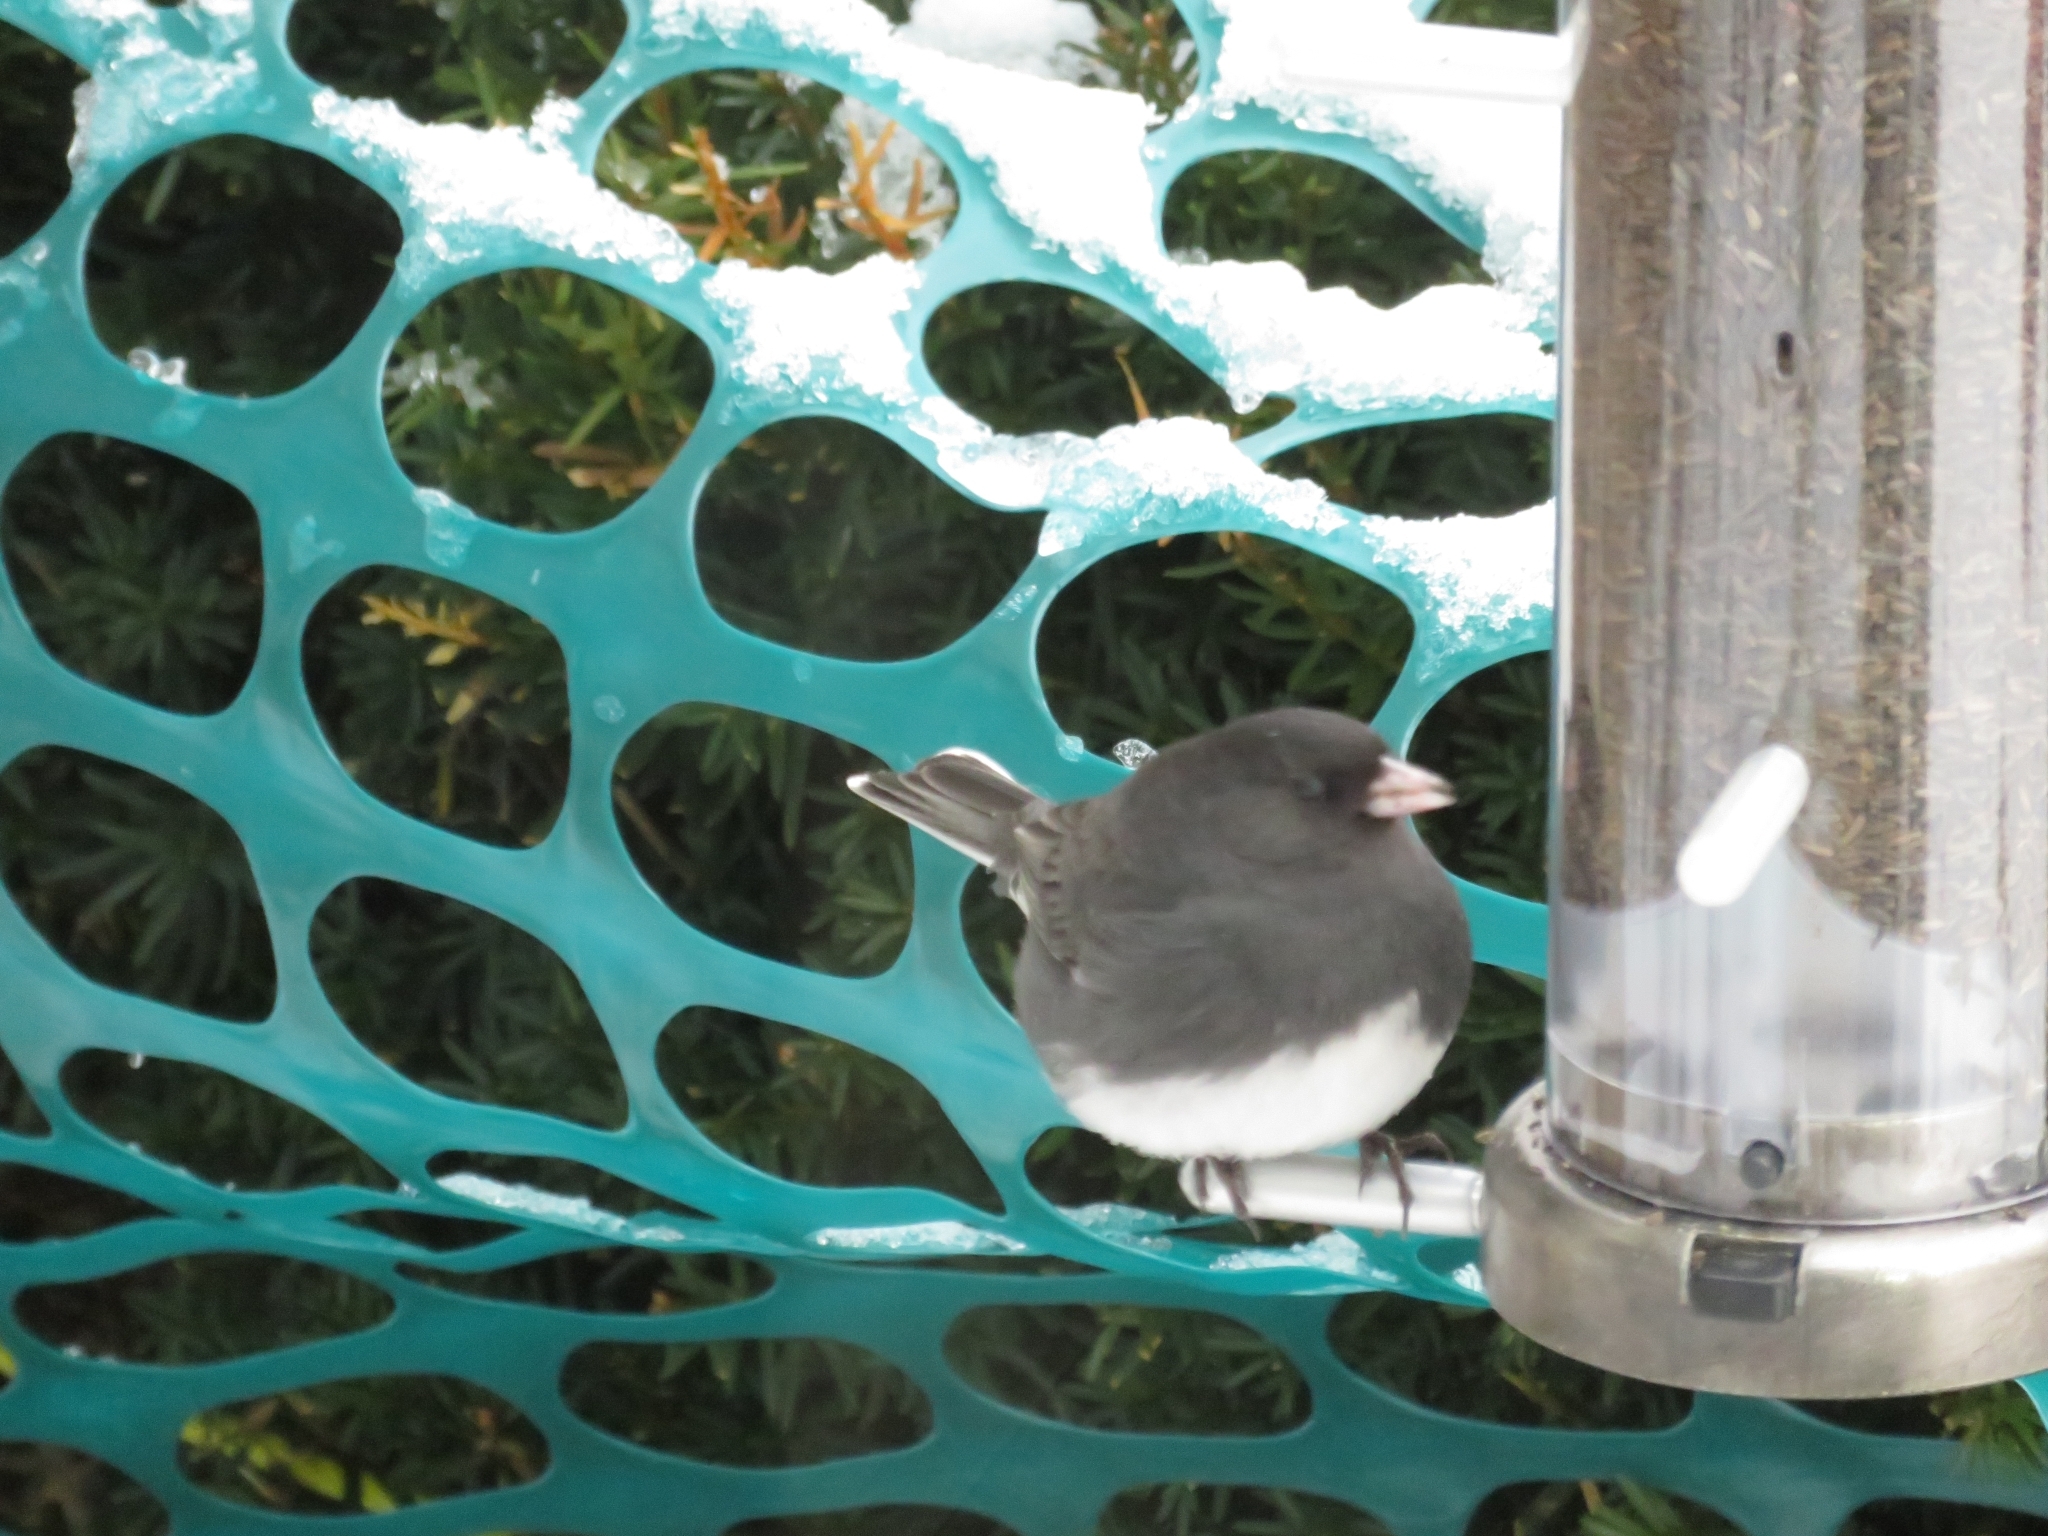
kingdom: Animalia
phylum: Chordata
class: Aves
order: Passeriformes
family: Passerellidae
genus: Junco
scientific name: Junco hyemalis
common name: Dark-eyed junco
